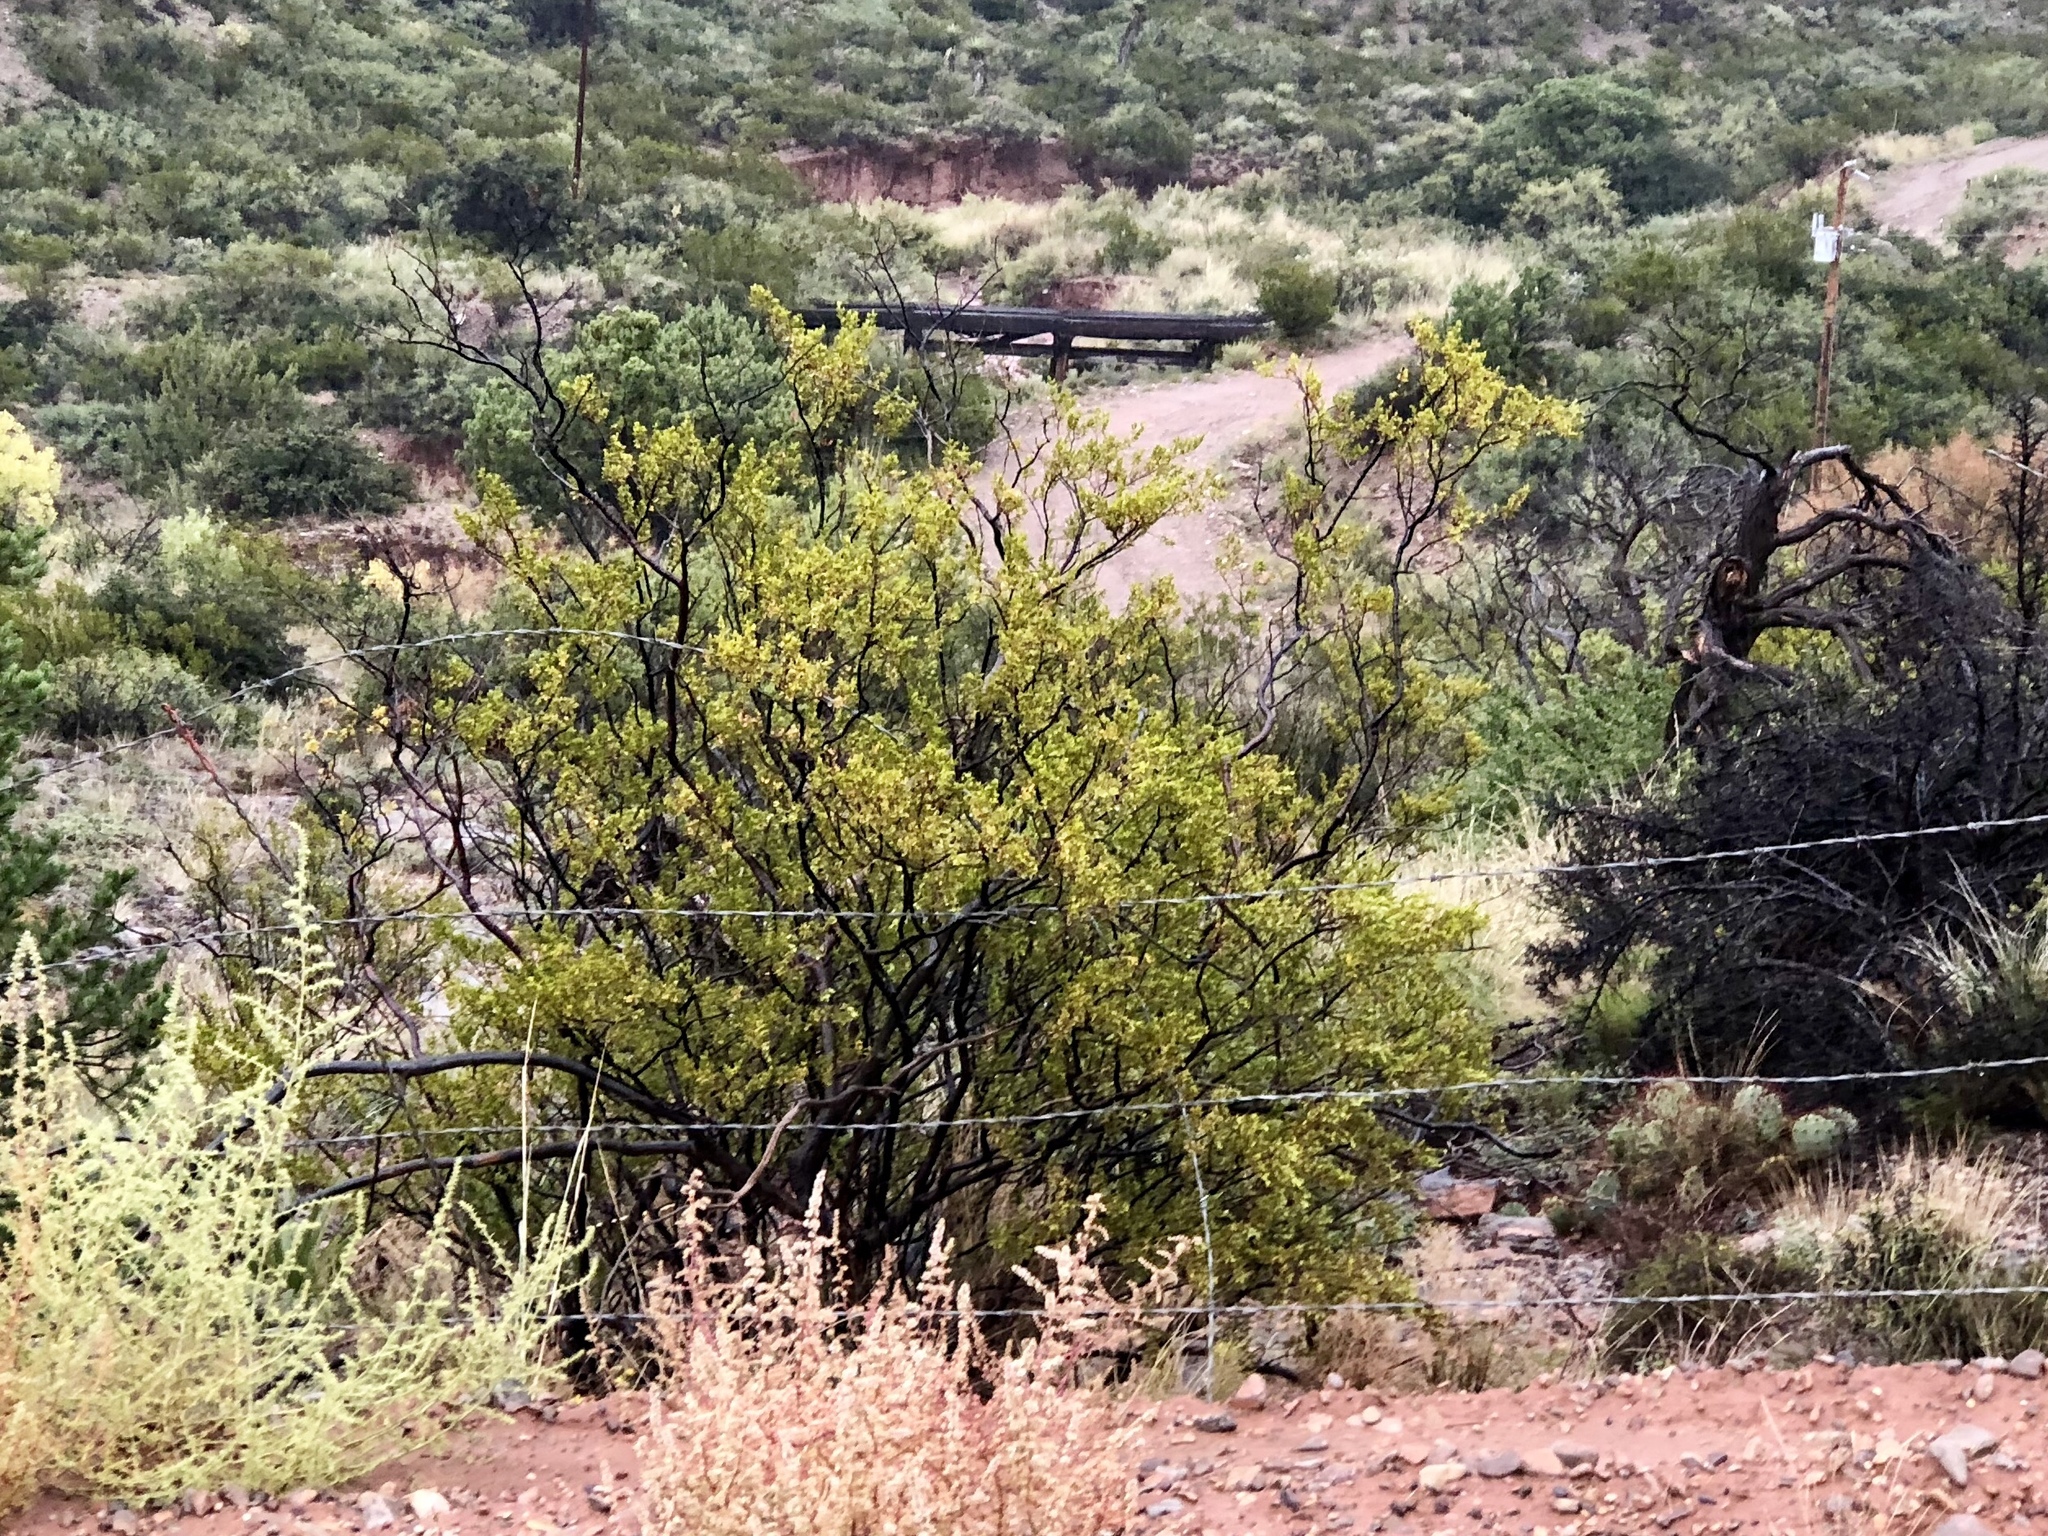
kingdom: Plantae
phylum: Tracheophyta
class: Magnoliopsida
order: Zygophyllales
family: Zygophyllaceae
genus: Larrea
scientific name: Larrea tridentata
